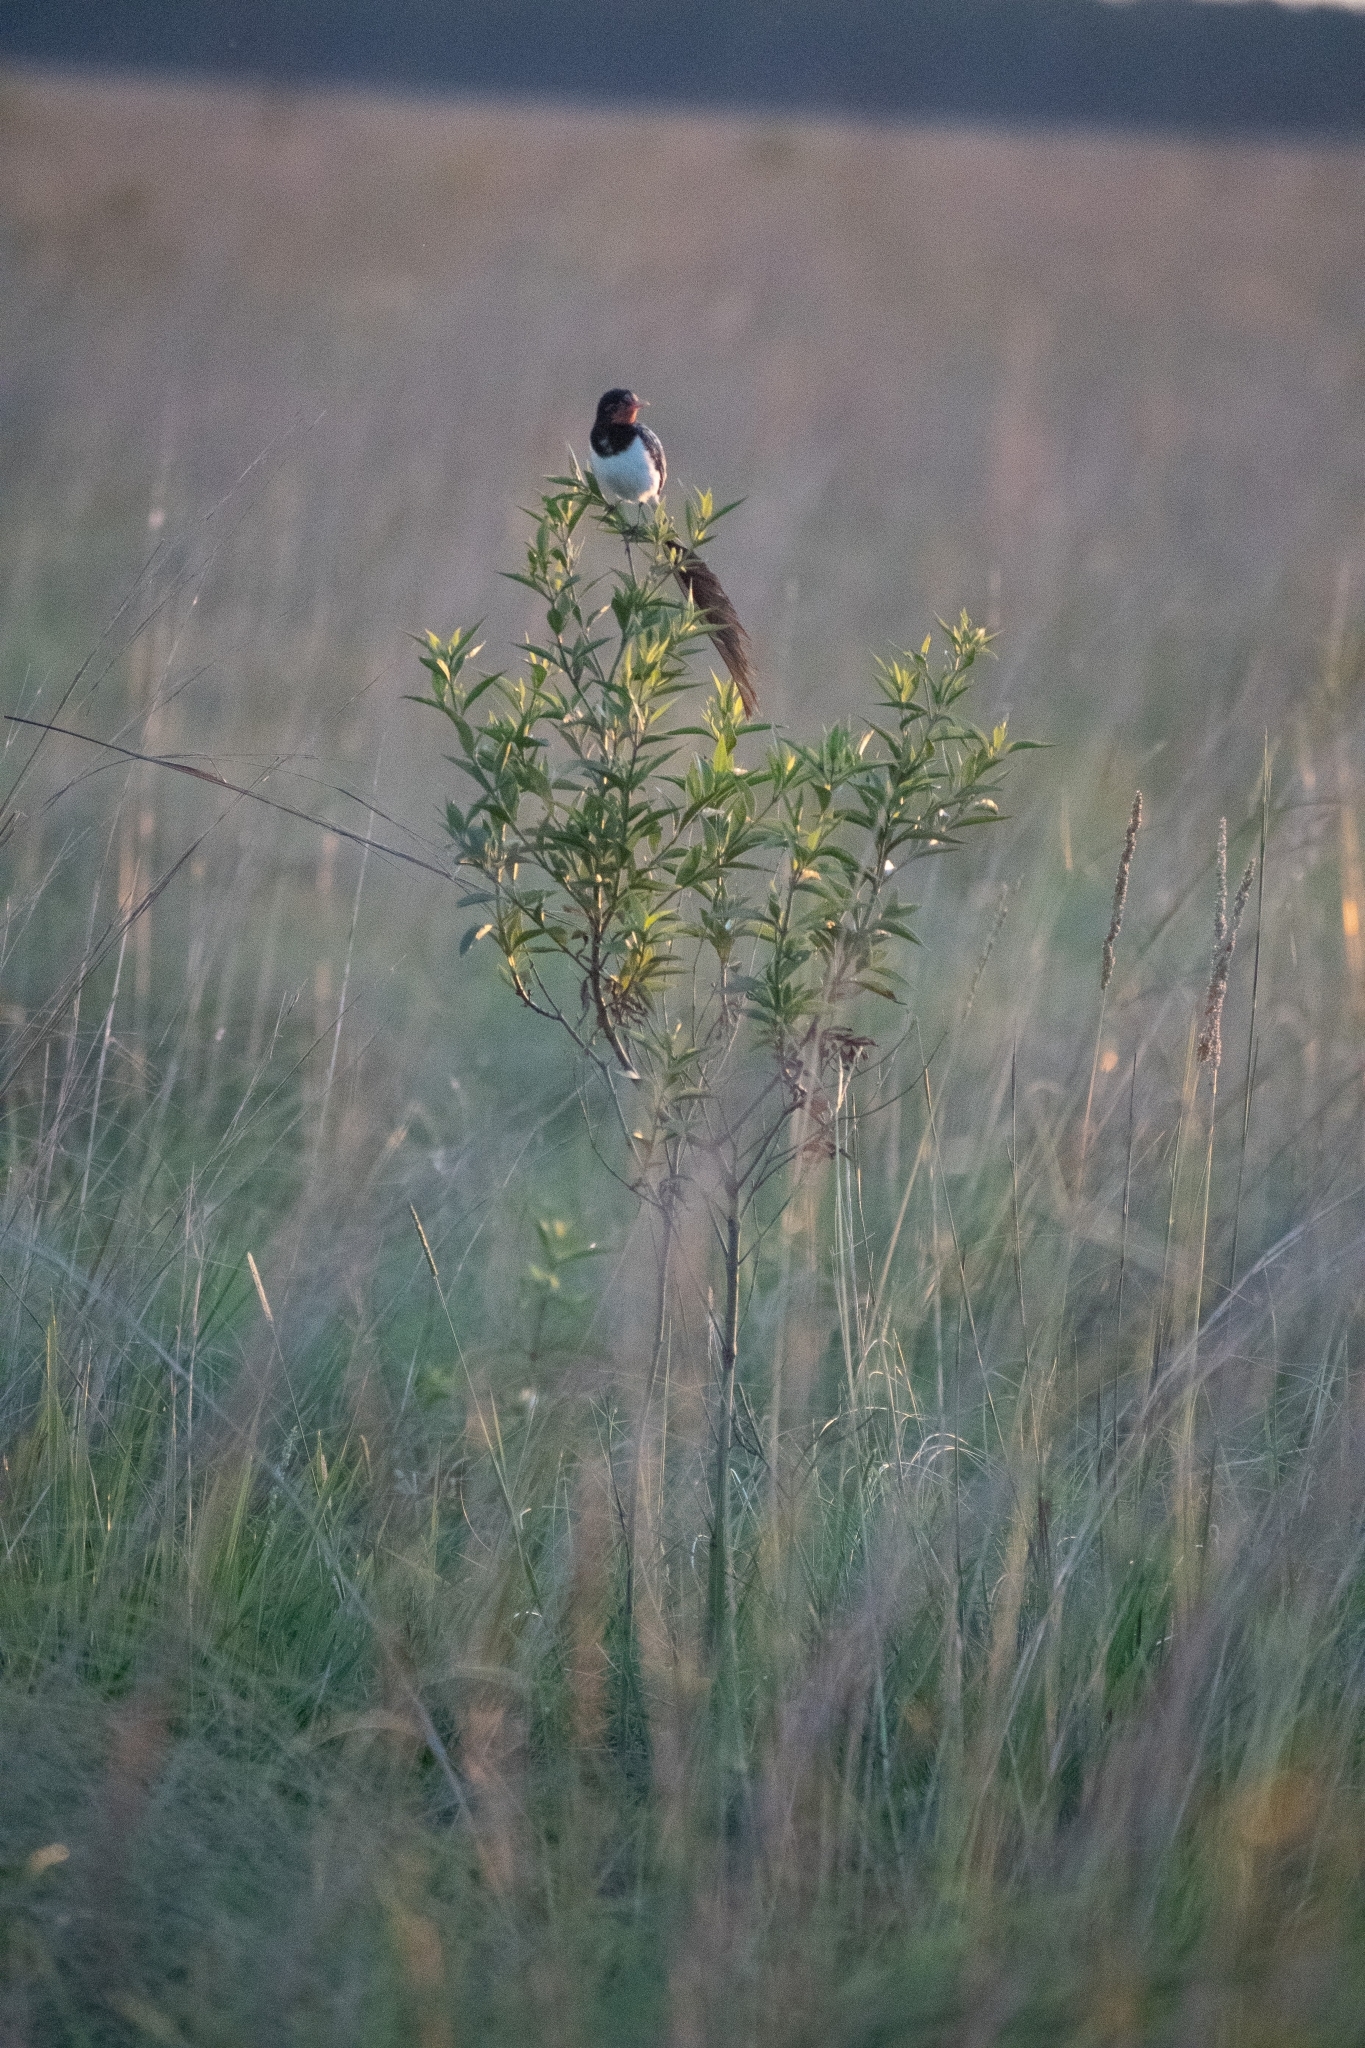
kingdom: Animalia
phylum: Chordata
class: Aves
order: Passeriformes
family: Tyrannidae
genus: Alectrurus
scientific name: Alectrurus risora
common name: Strange-tailed tyrant
